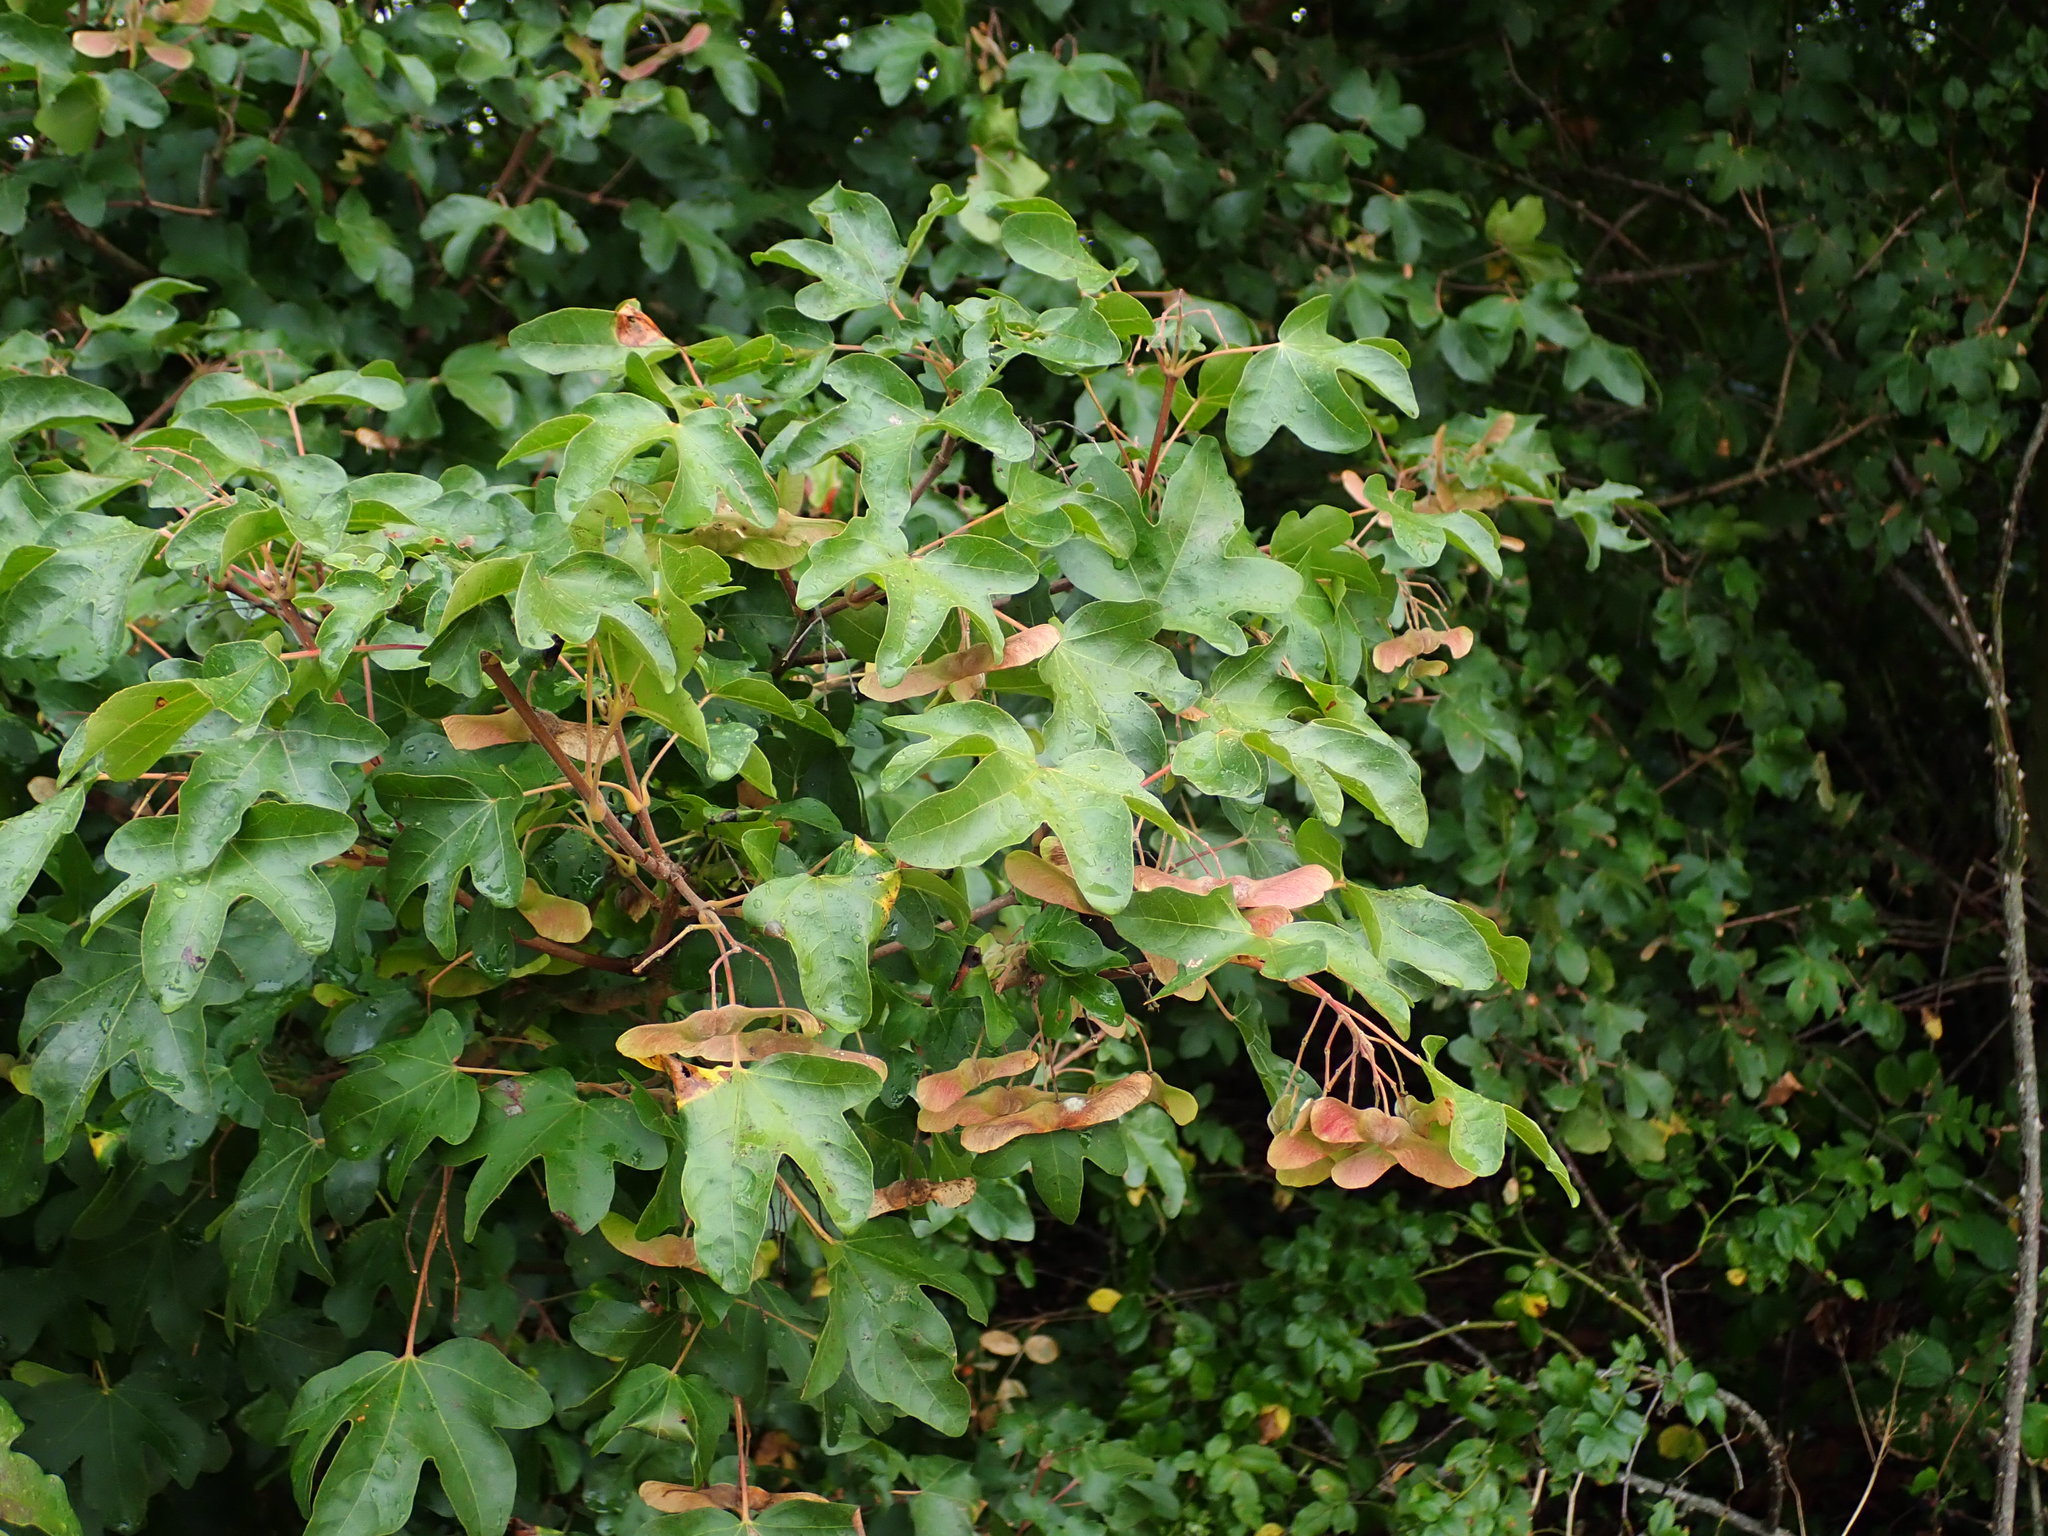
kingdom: Plantae
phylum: Tracheophyta
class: Magnoliopsida
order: Sapindales
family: Sapindaceae
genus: Acer
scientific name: Acer campestre
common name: Field maple
